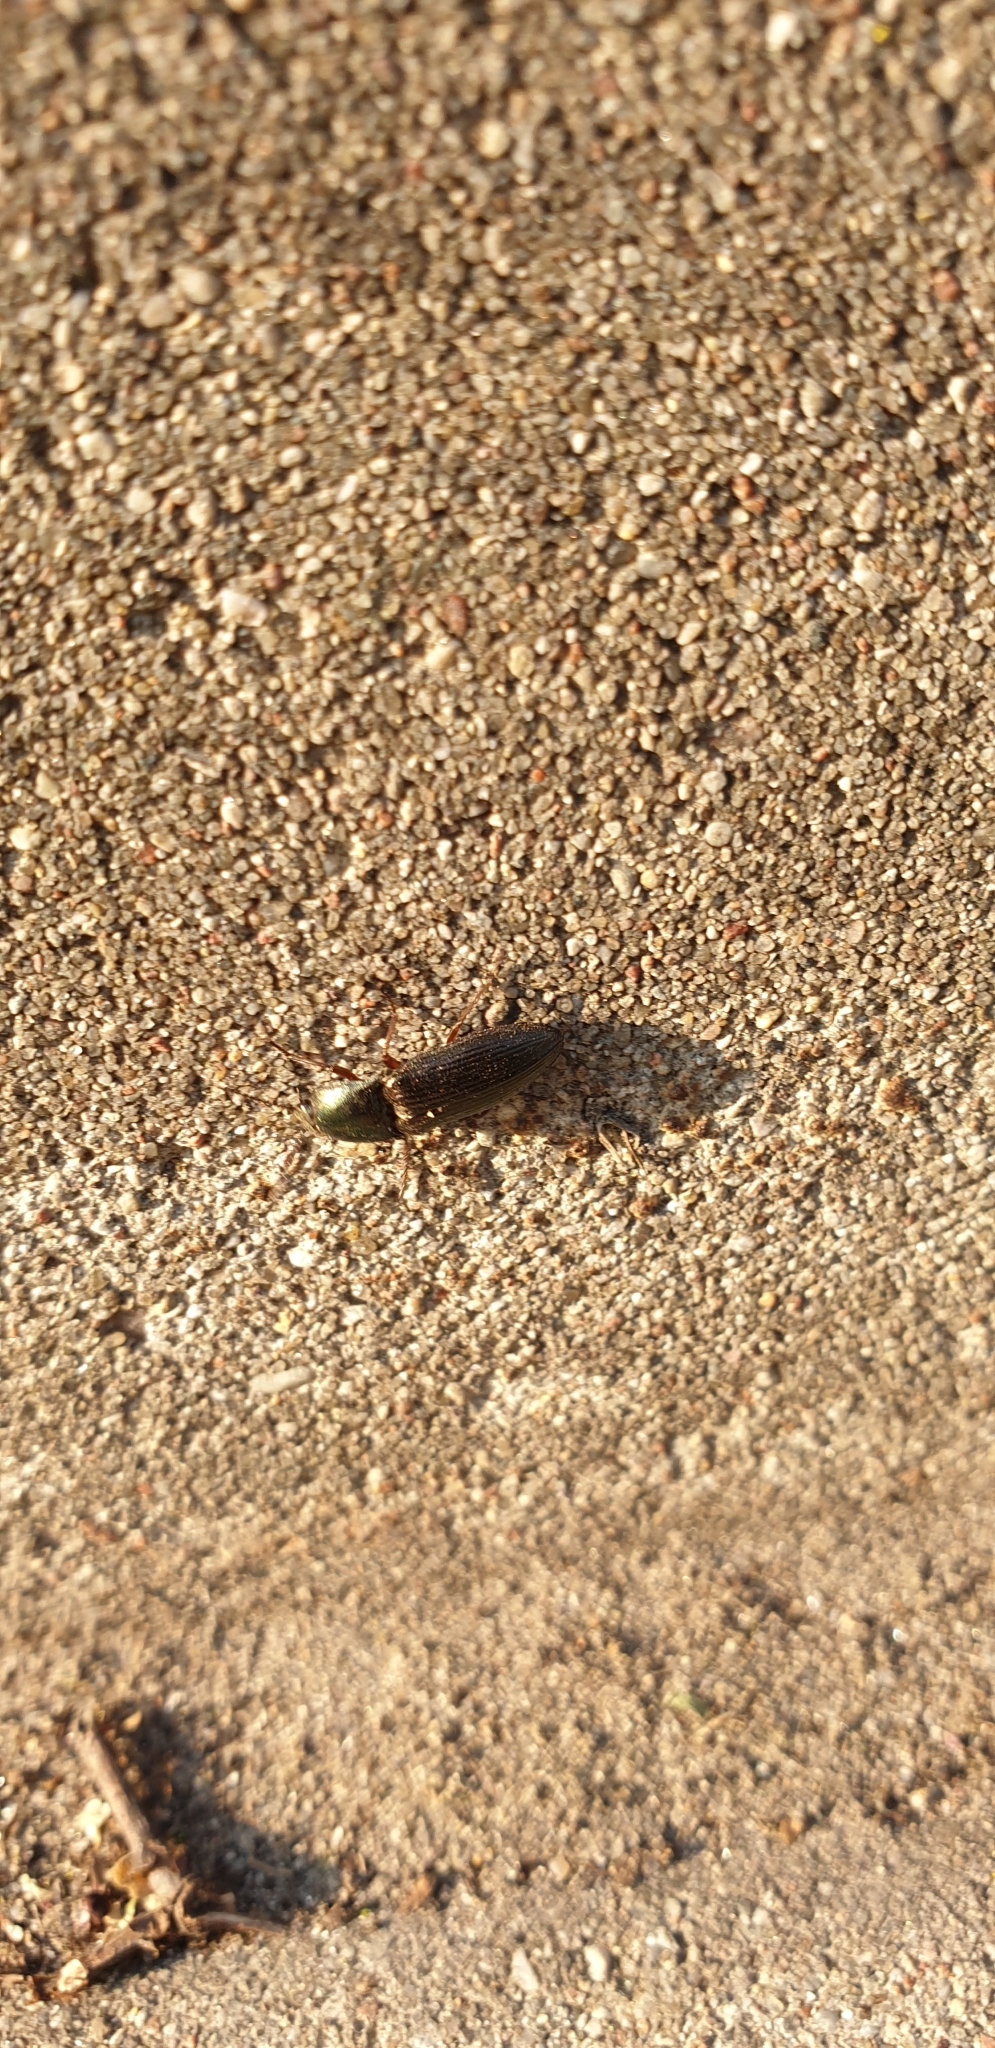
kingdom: Animalia
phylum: Arthropoda
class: Insecta
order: Coleoptera
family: Elateridae
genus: Selatosomus
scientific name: Selatosomus aeneus
